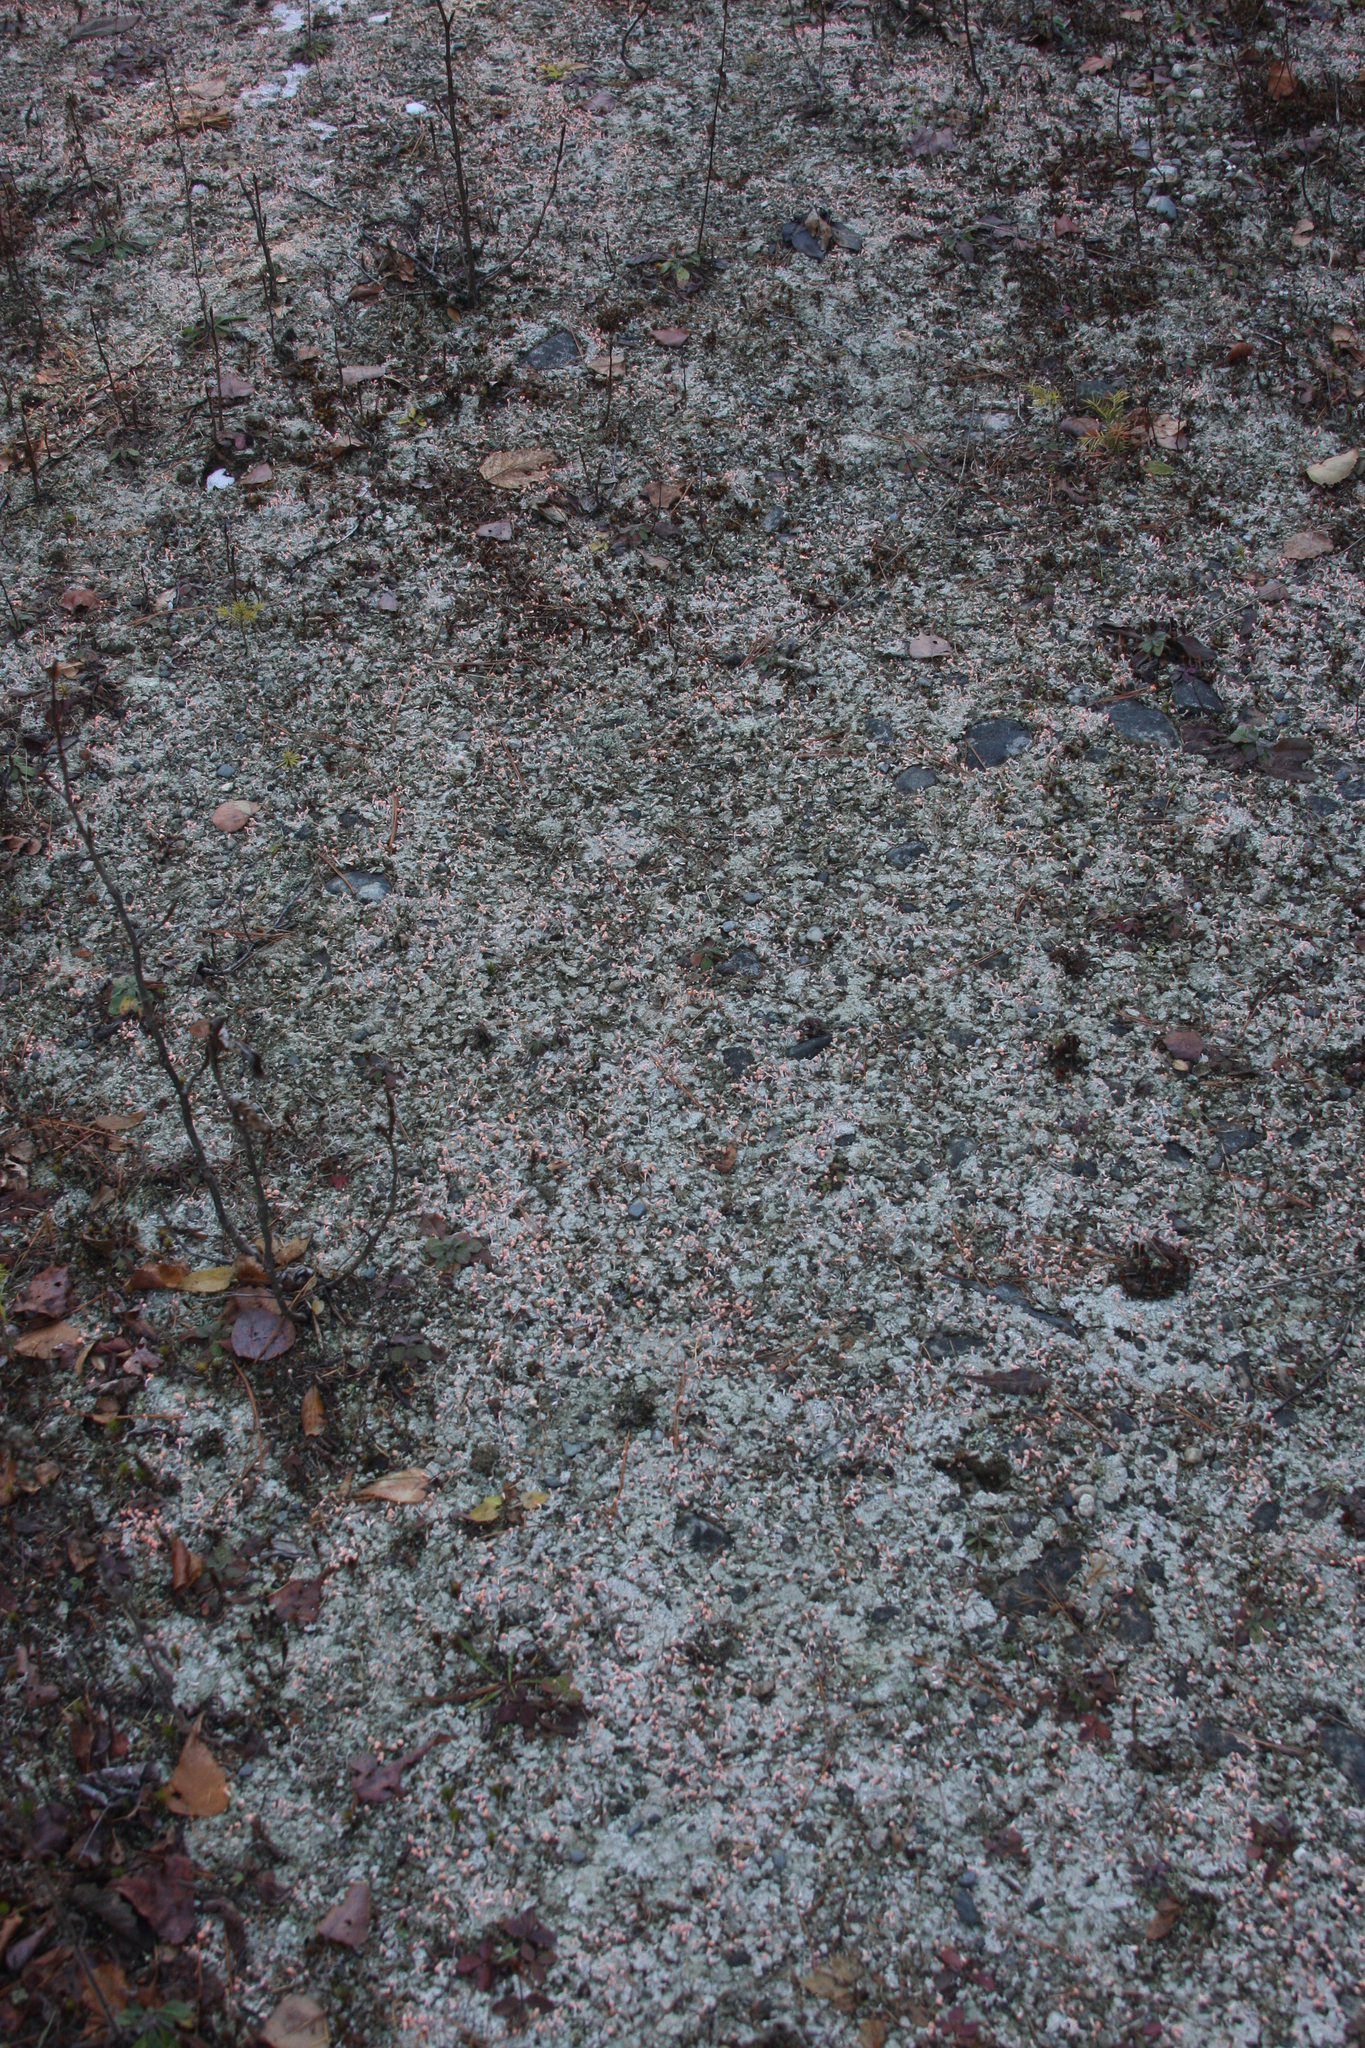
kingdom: Fungi
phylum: Ascomycota
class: Lecanoromycetes
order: Pertusariales
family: Icmadophilaceae
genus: Dibaeis
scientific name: Dibaeis baeomyces
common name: Pink earth lichen
